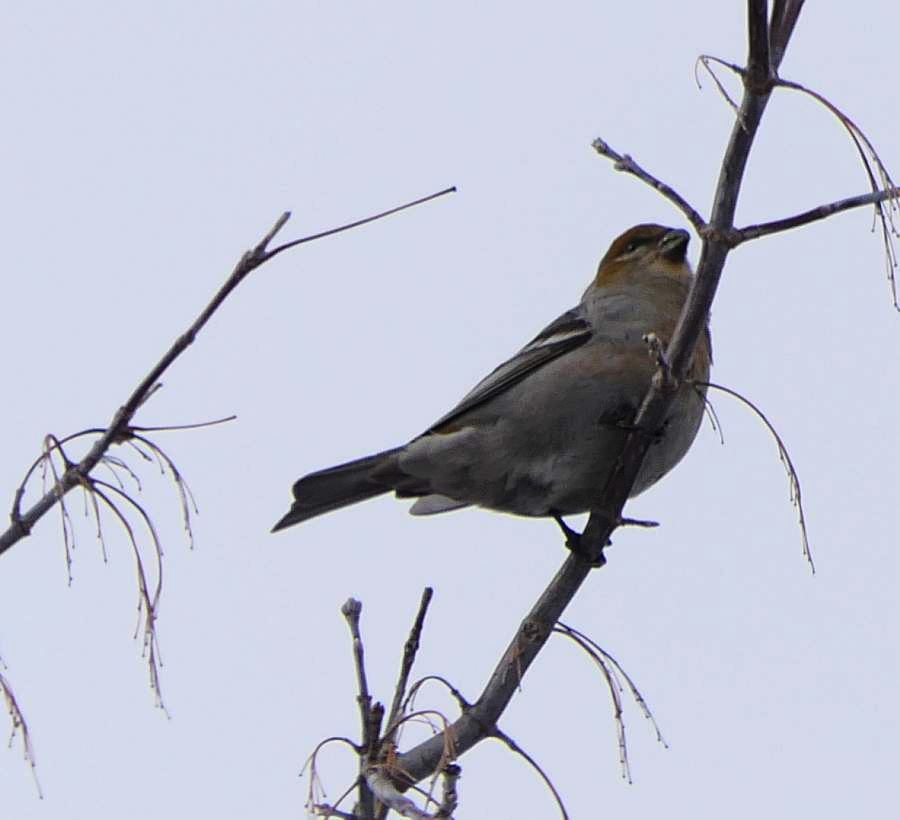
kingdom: Animalia
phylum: Chordata
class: Aves
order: Passeriformes
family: Fringillidae
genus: Pinicola
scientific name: Pinicola enucleator
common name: Pine grosbeak
